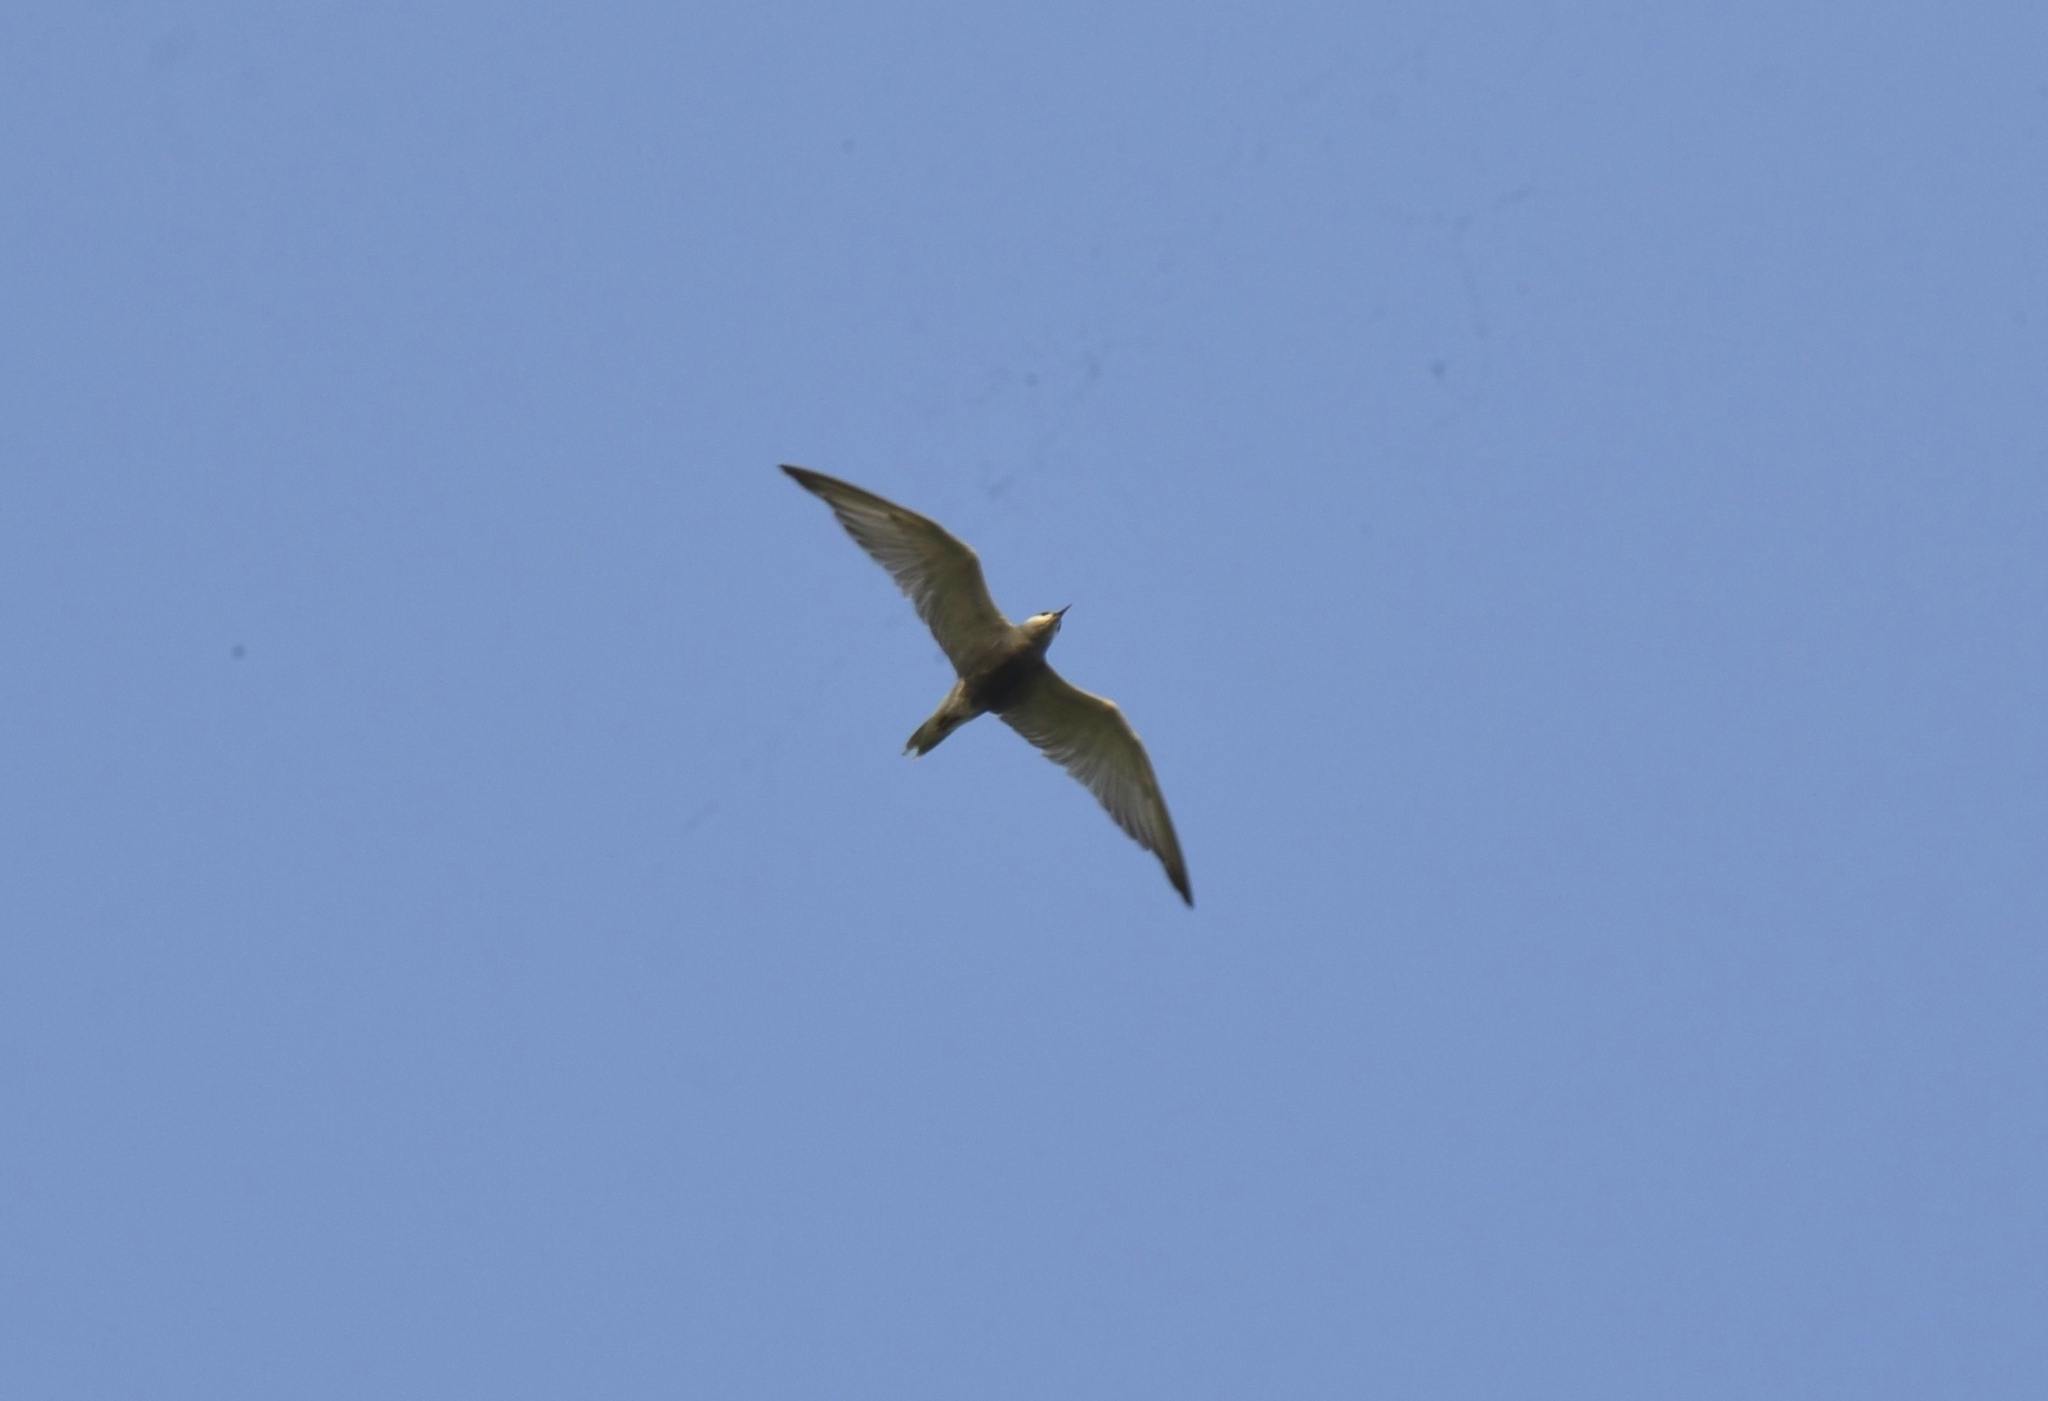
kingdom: Animalia
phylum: Chordata
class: Aves
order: Charadriiformes
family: Laridae
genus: Chlidonias
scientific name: Chlidonias hybrida
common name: Whiskered tern
